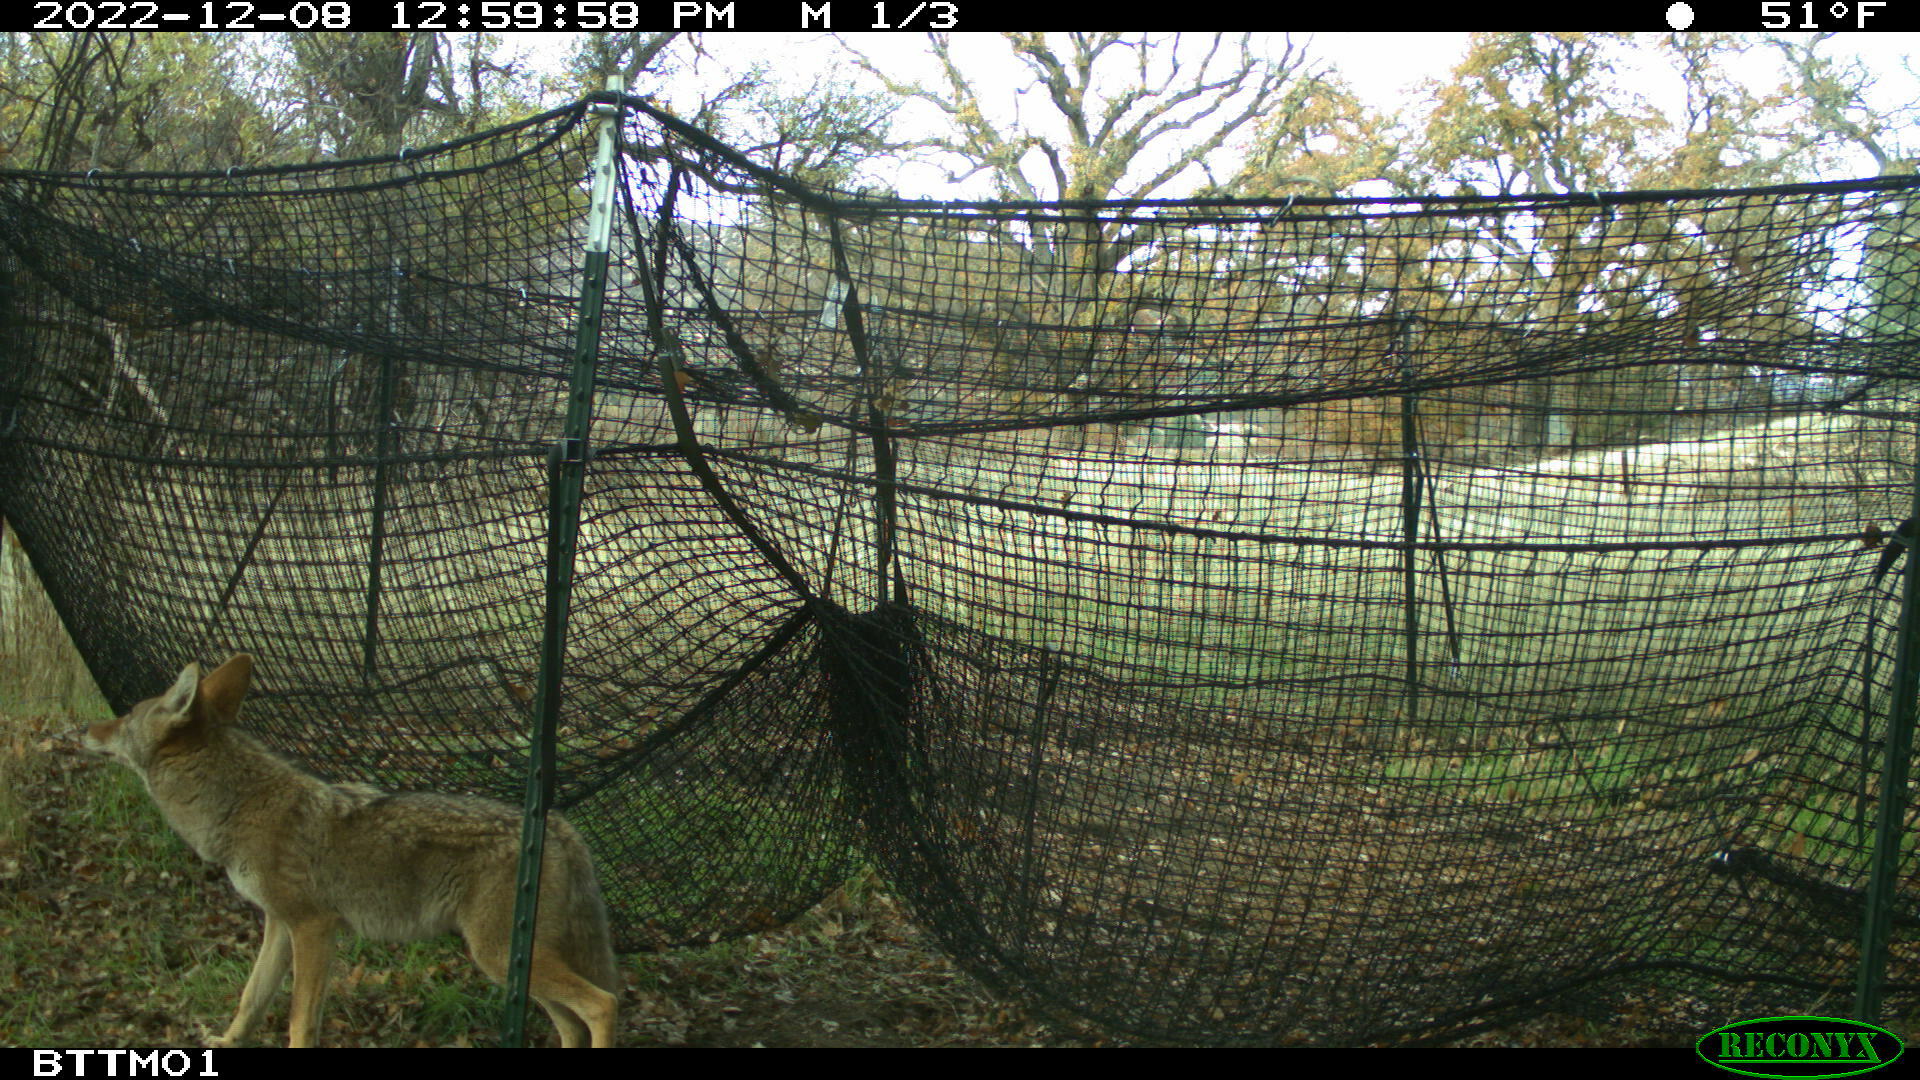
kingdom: Animalia
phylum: Chordata
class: Mammalia
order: Carnivora
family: Canidae
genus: Canis
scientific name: Canis latrans
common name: Coyote
